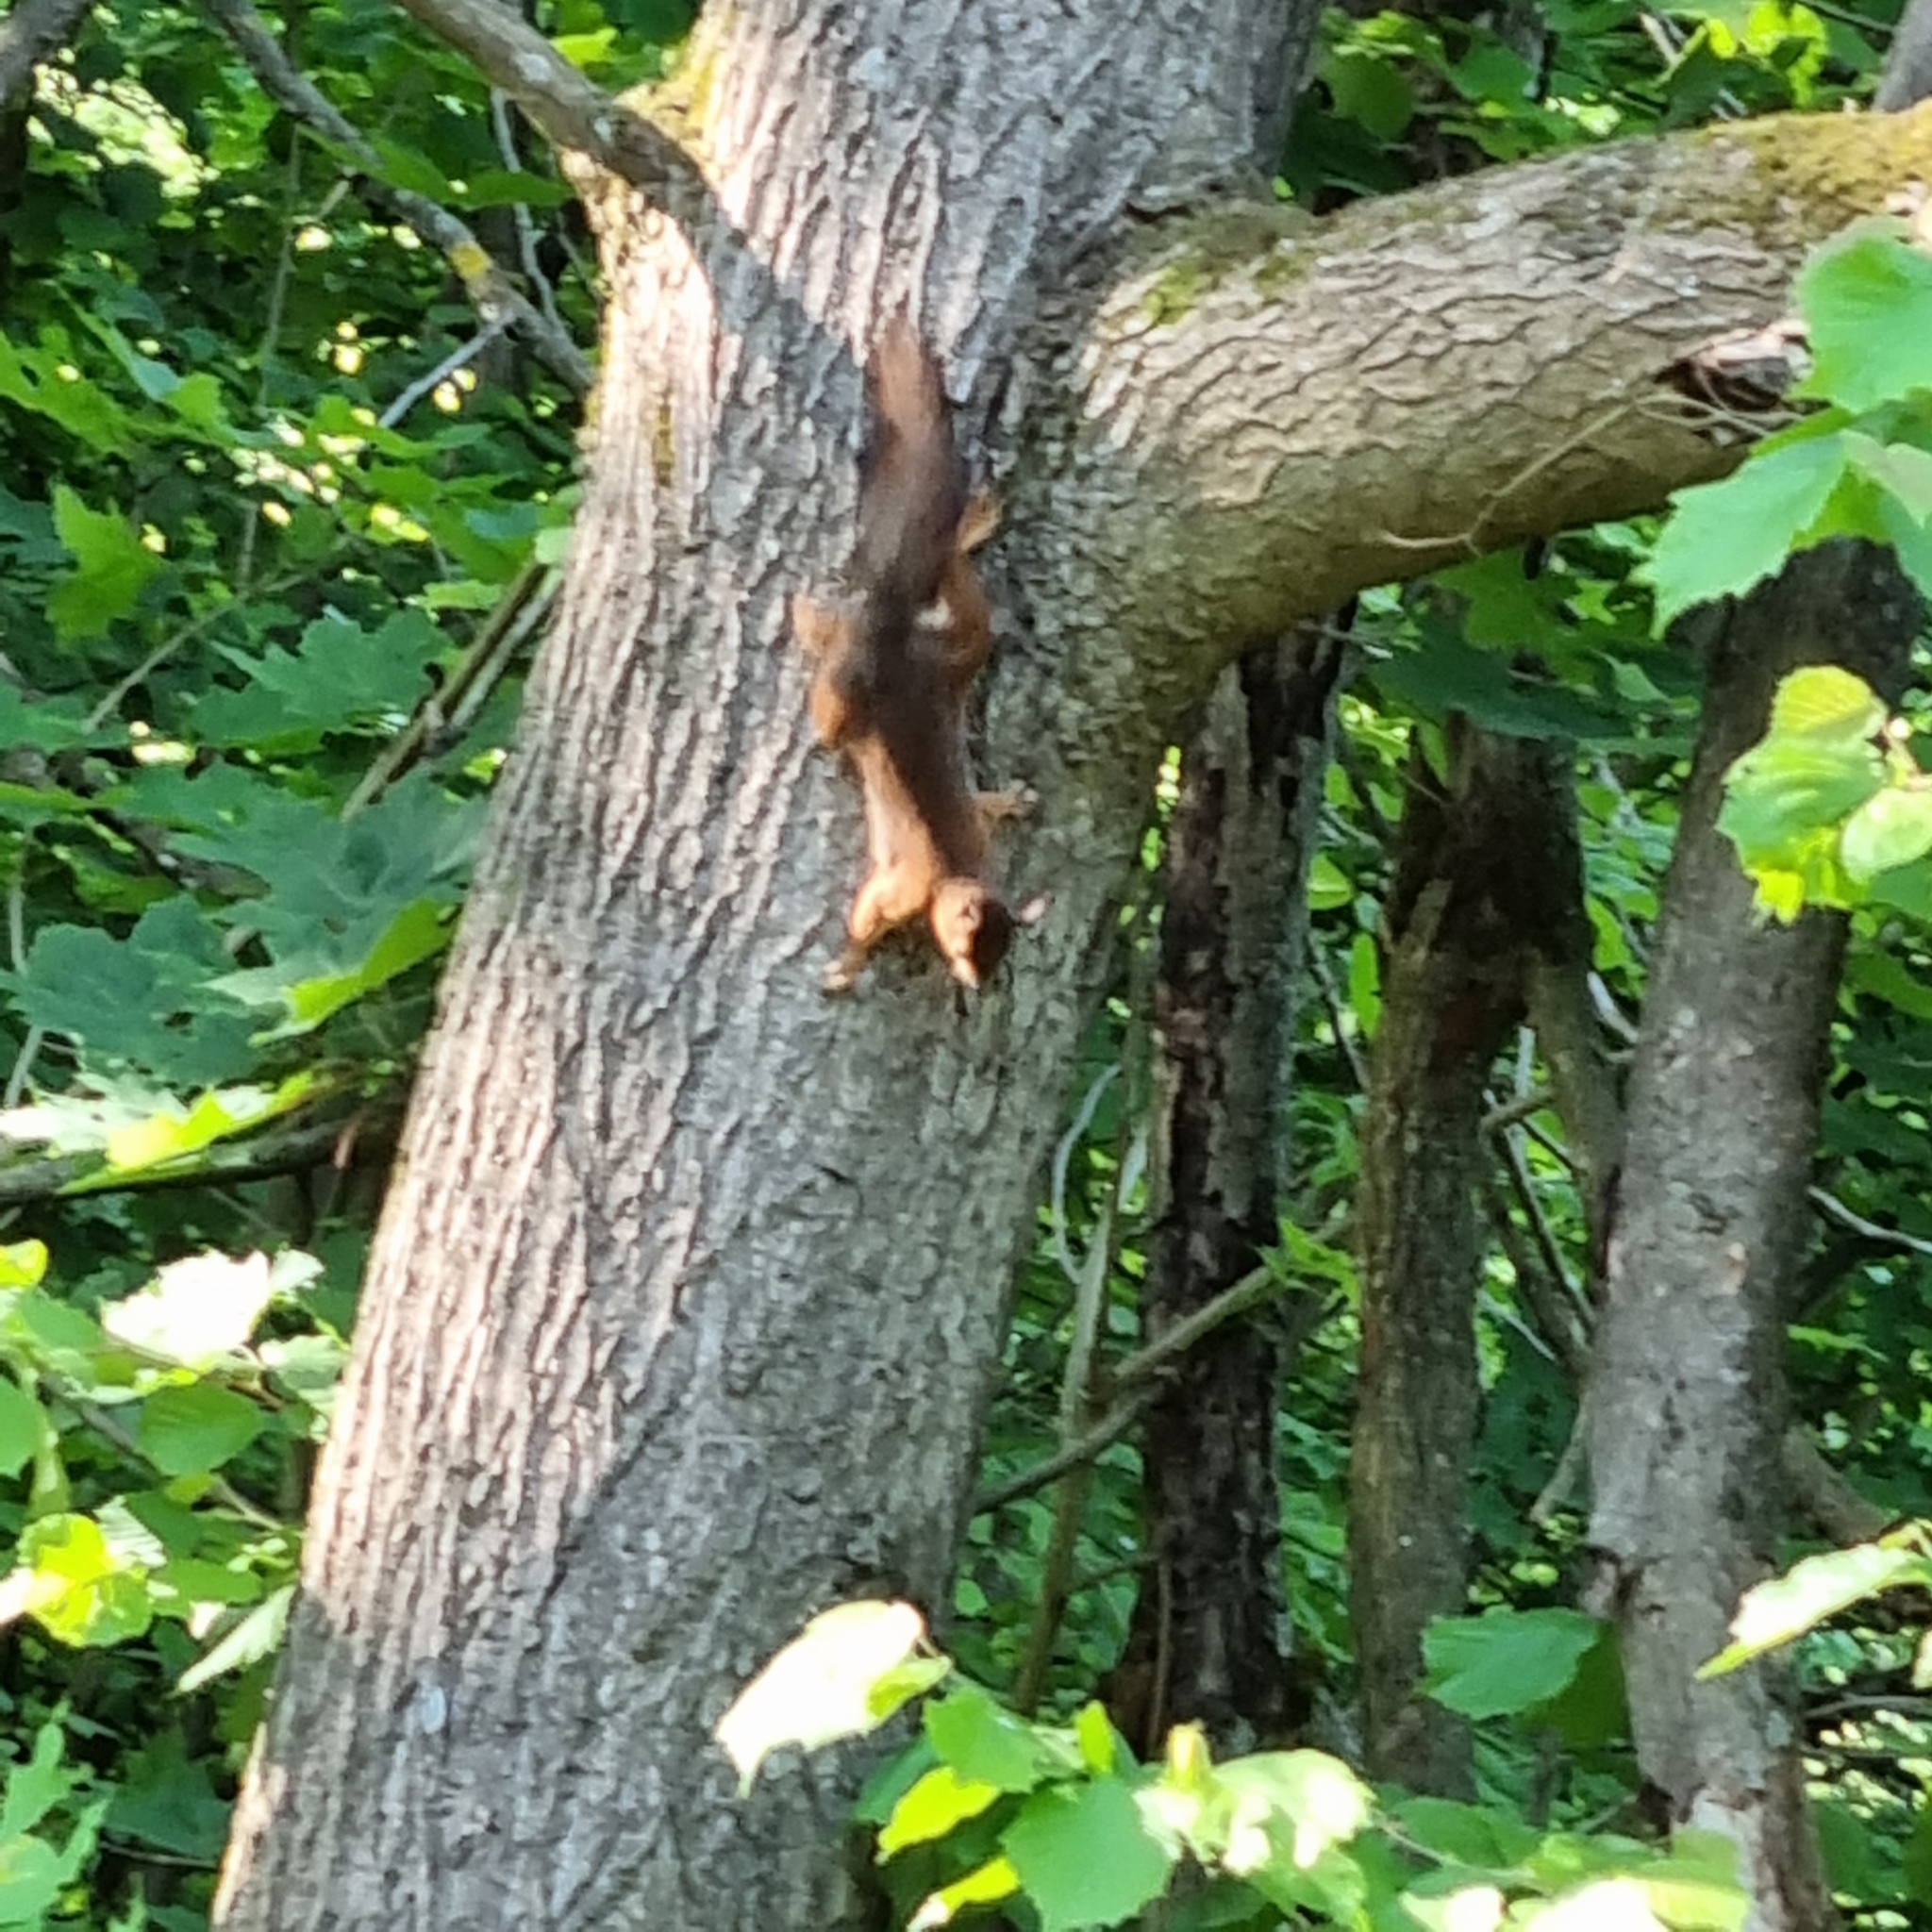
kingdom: Animalia
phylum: Chordata
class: Mammalia
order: Rodentia
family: Sciuridae
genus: Sciurus
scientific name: Sciurus vulgaris
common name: Eurasian red squirrel
